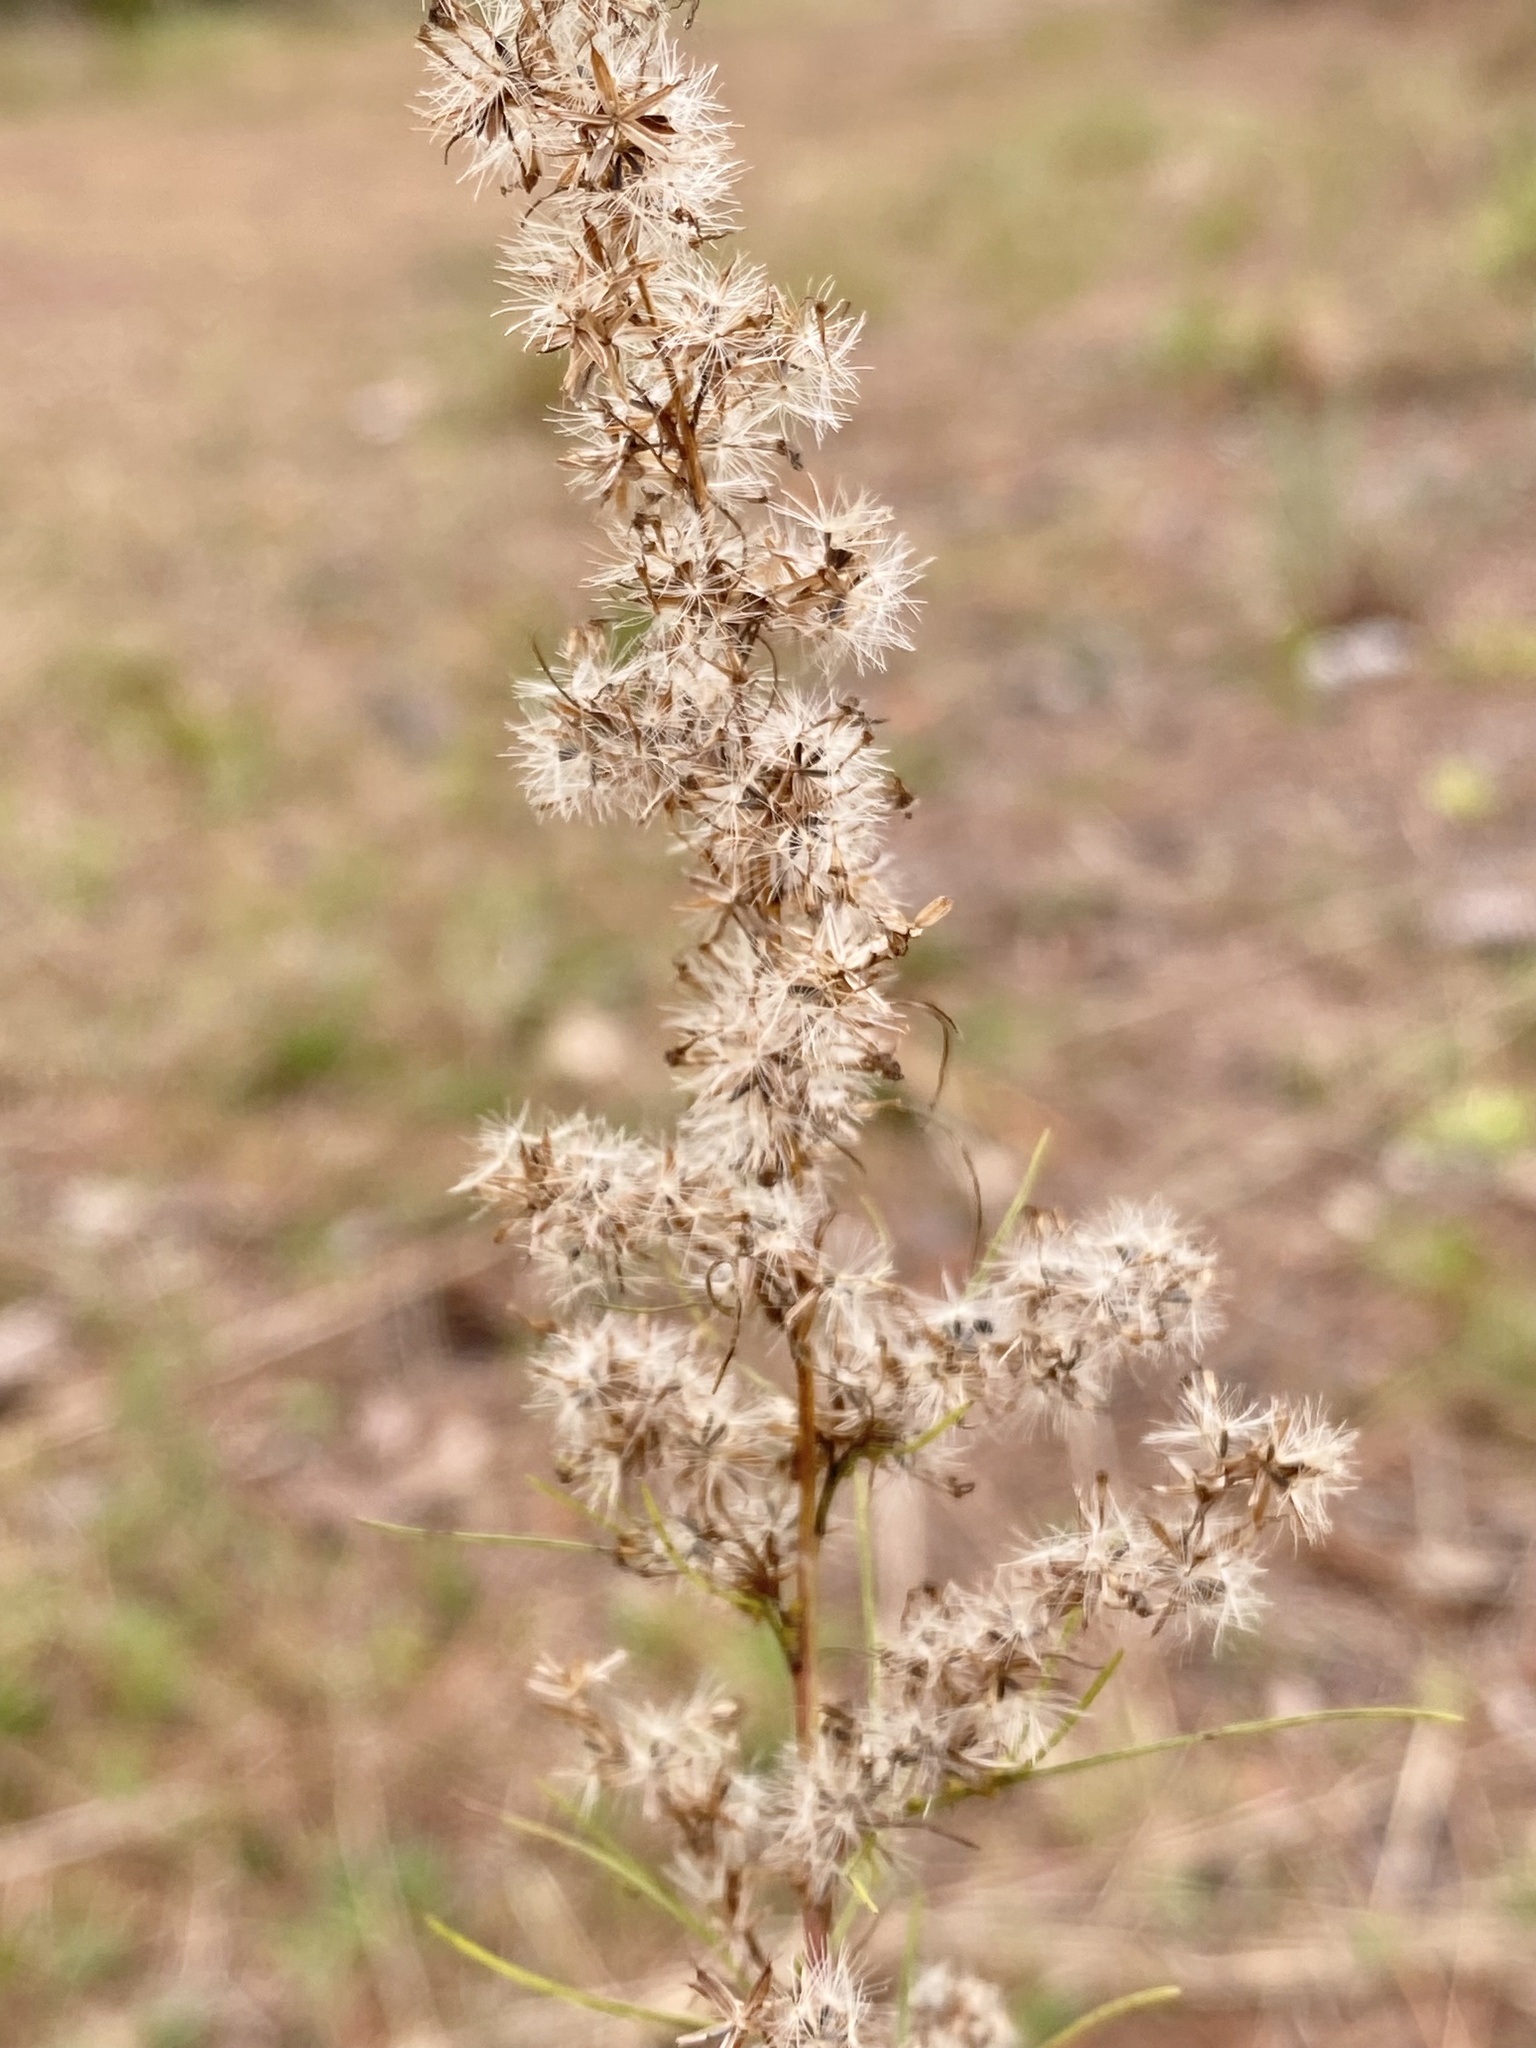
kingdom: Plantae
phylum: Tracheophyta
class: Magnoliopsida
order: Asterales
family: Asteraceae
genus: Eupatorium
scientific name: Eupatorium leptophyllum
